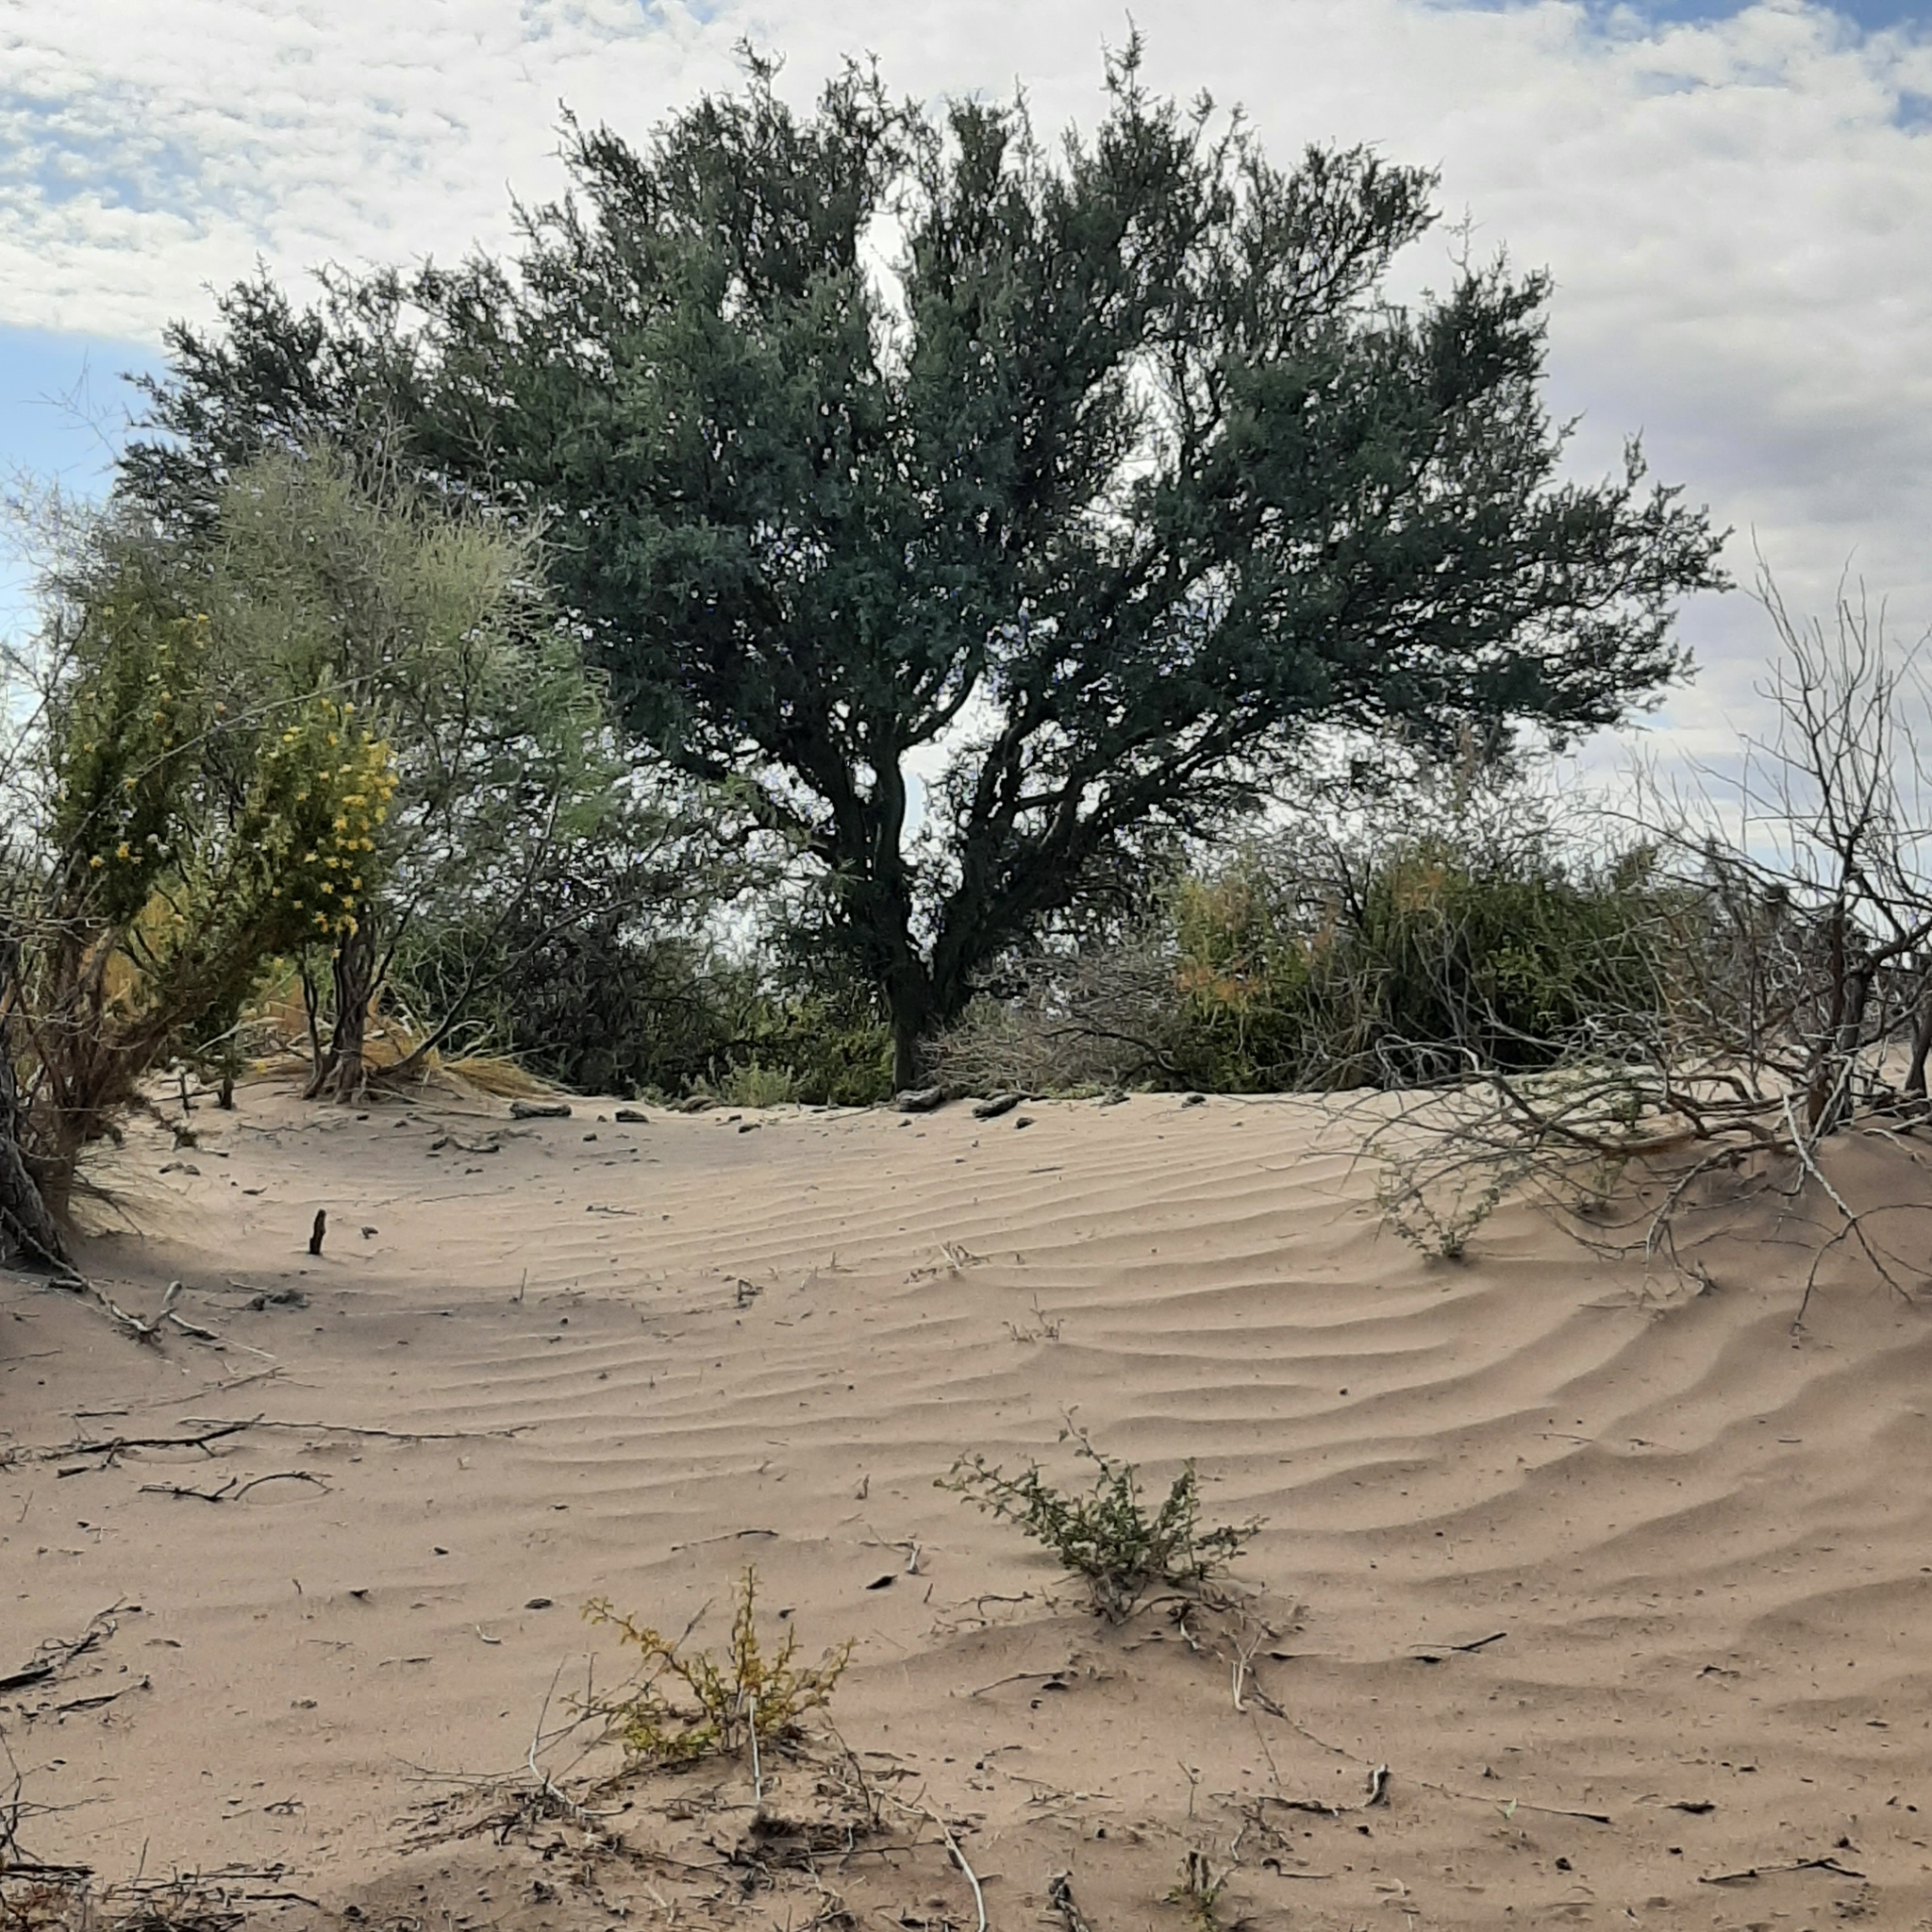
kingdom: Plantae
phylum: Tracheophyta
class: Magnoliopsida
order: Fabales
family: Fabaceae
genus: Geoffroea
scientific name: Geoffroea decorticans
